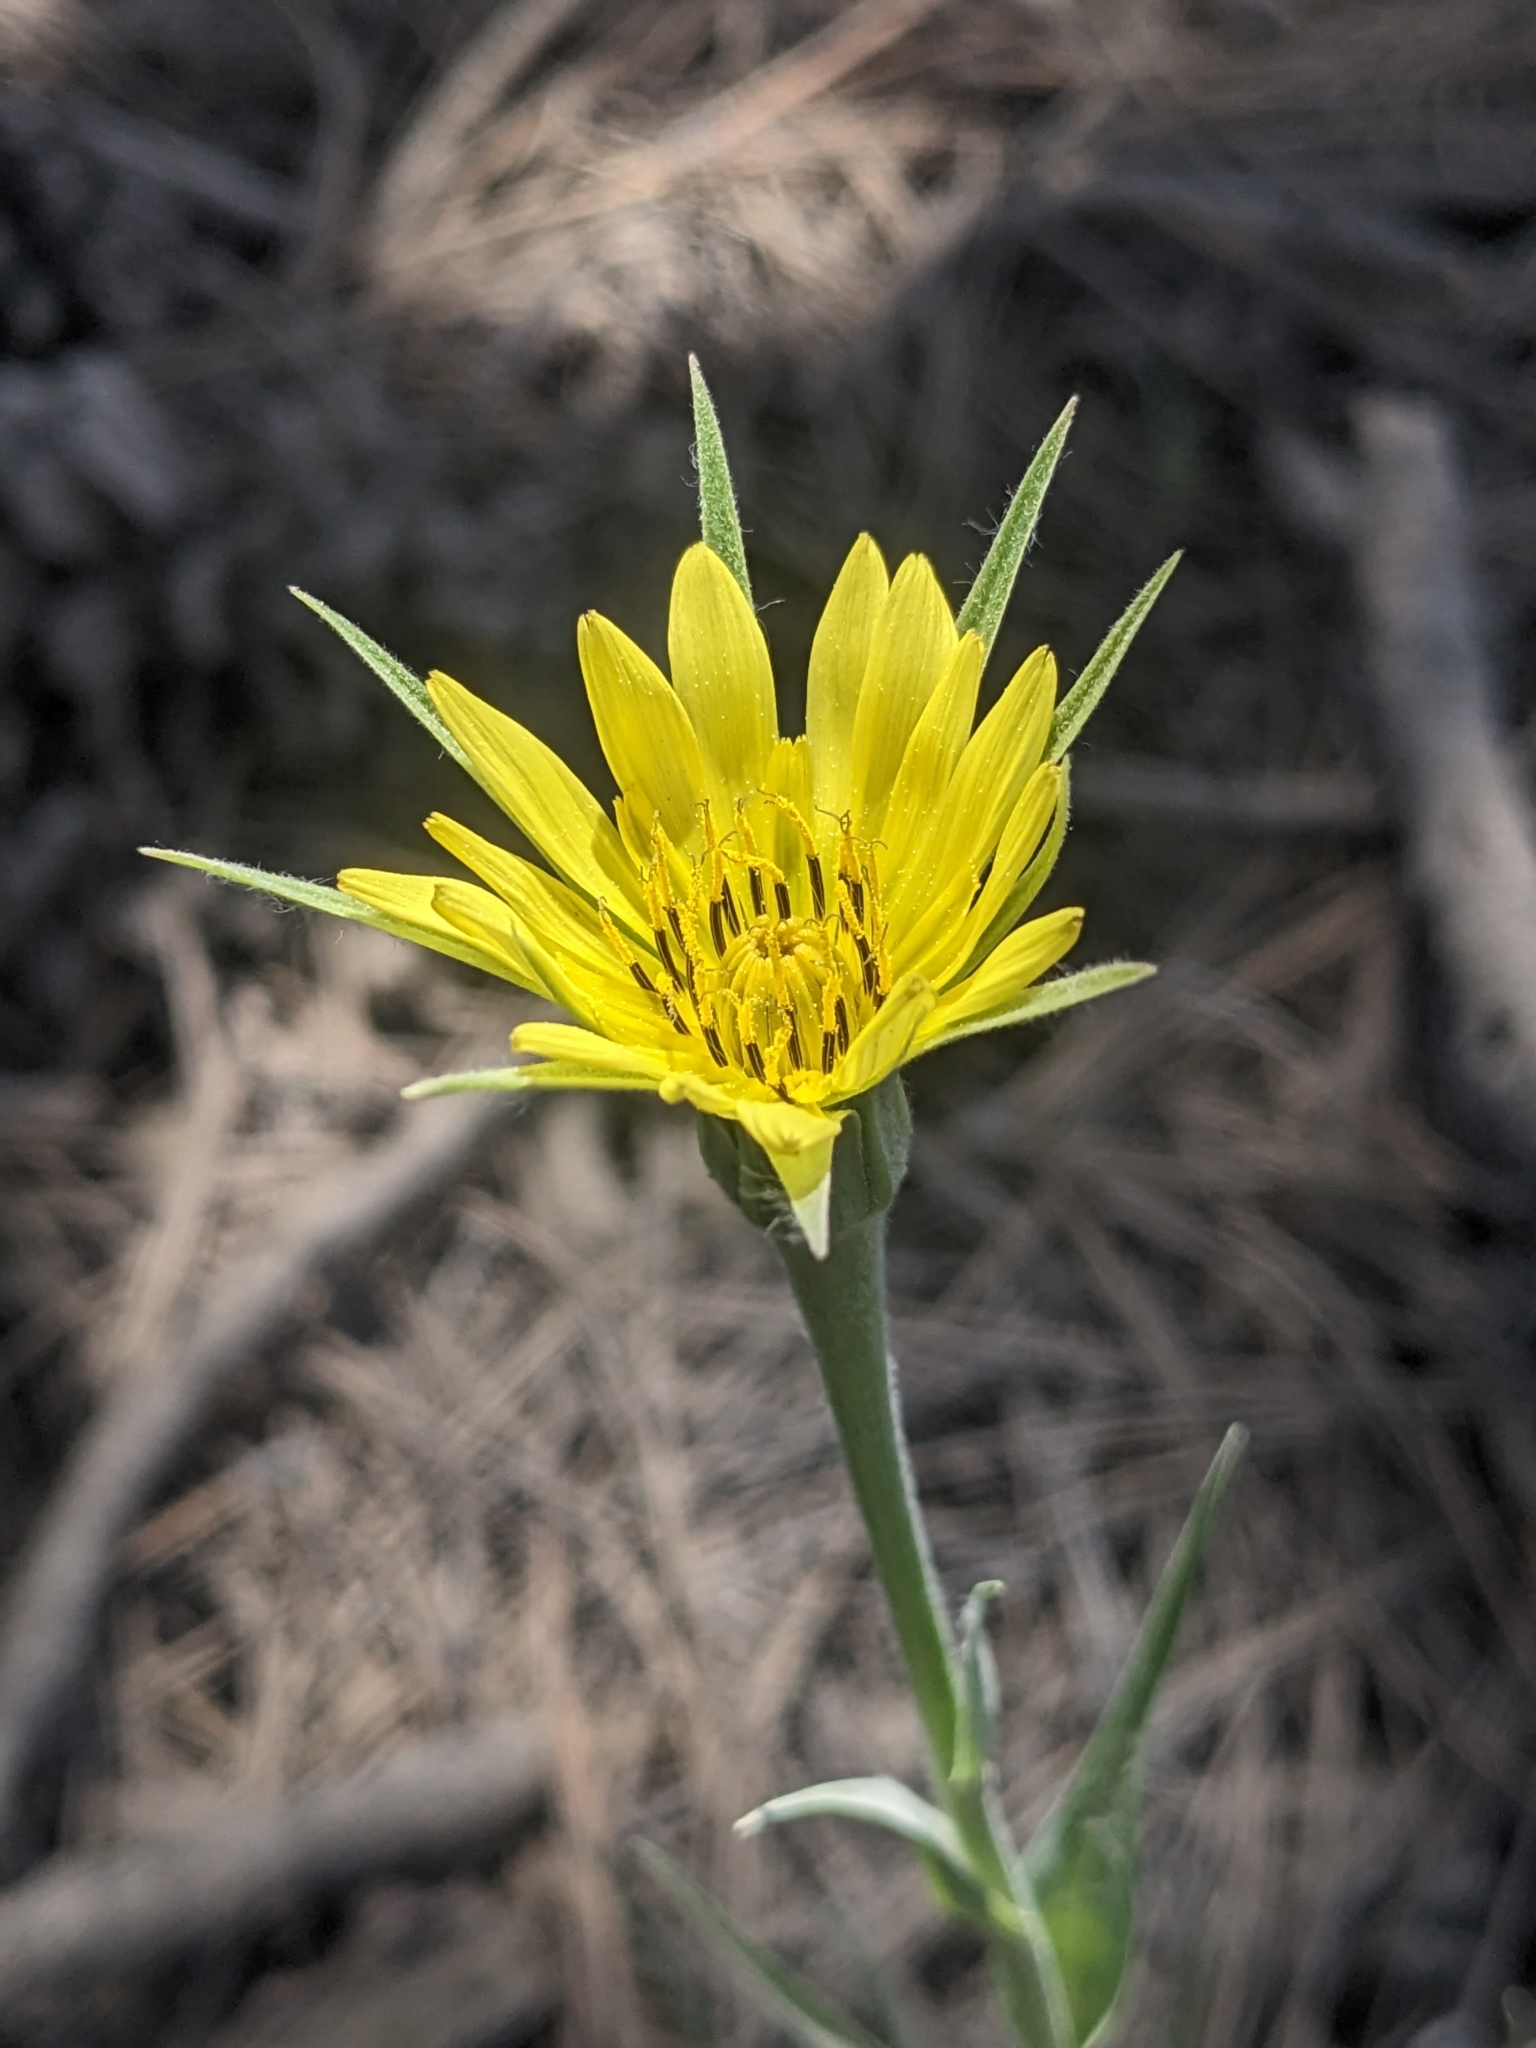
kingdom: Plantae
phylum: Tracheophyta
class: Magnoliopsida
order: Asterales
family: Asteraceae
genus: Tragopogon
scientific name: Tragopogon dubius
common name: Yellow salsify
